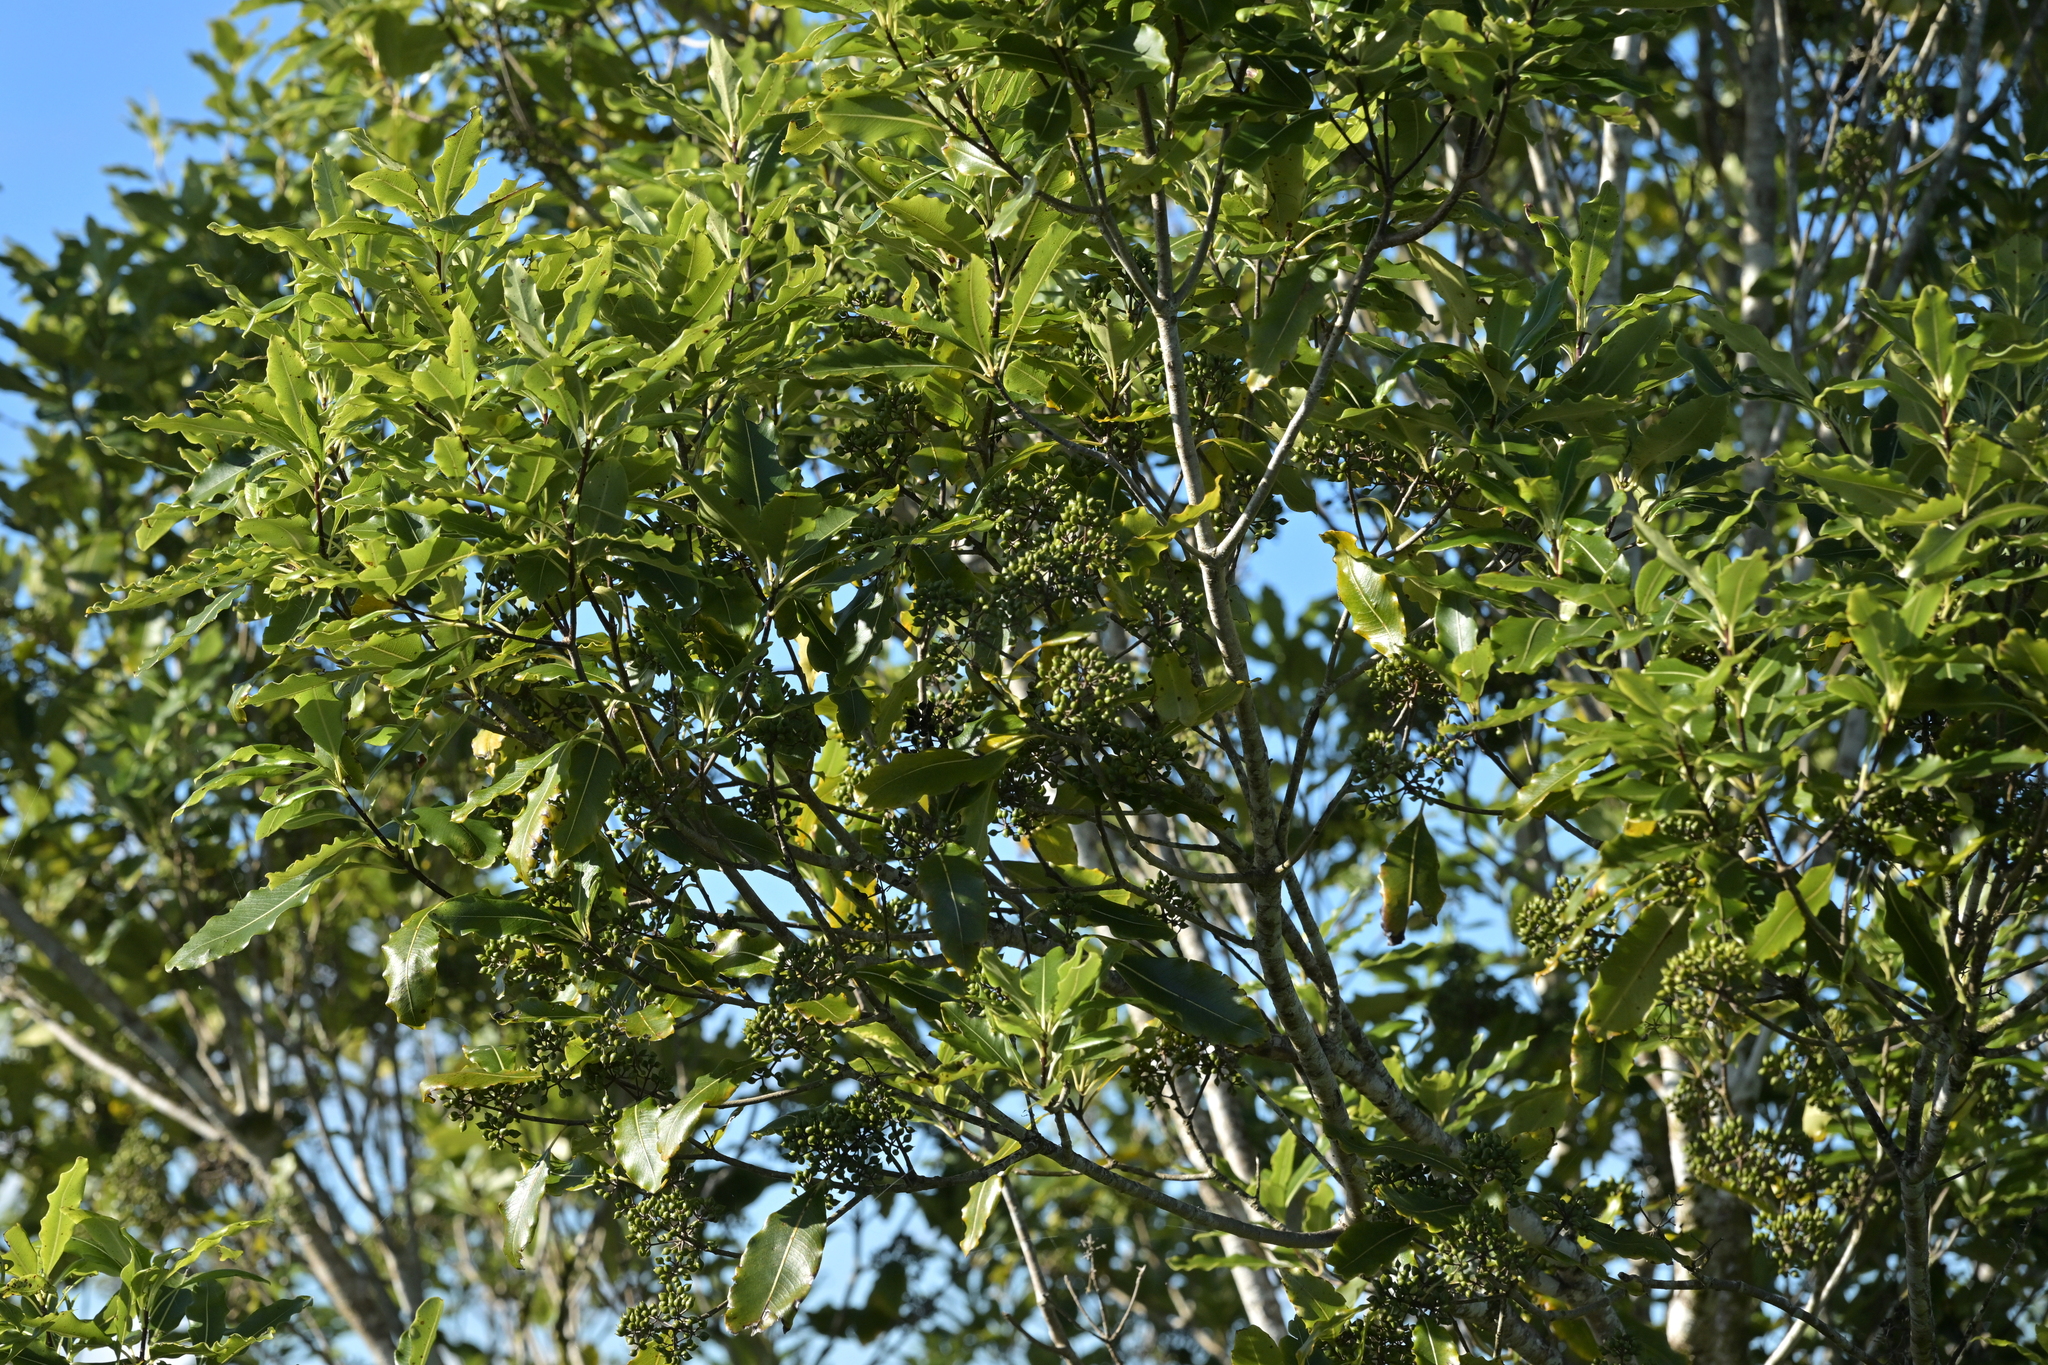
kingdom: Plantae
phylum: Tracheophyta
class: Magnoliopsida
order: Apiales
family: Pittosporaceae
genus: Pittosporum
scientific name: Pittosporum eugenioides
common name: Lemonwood
